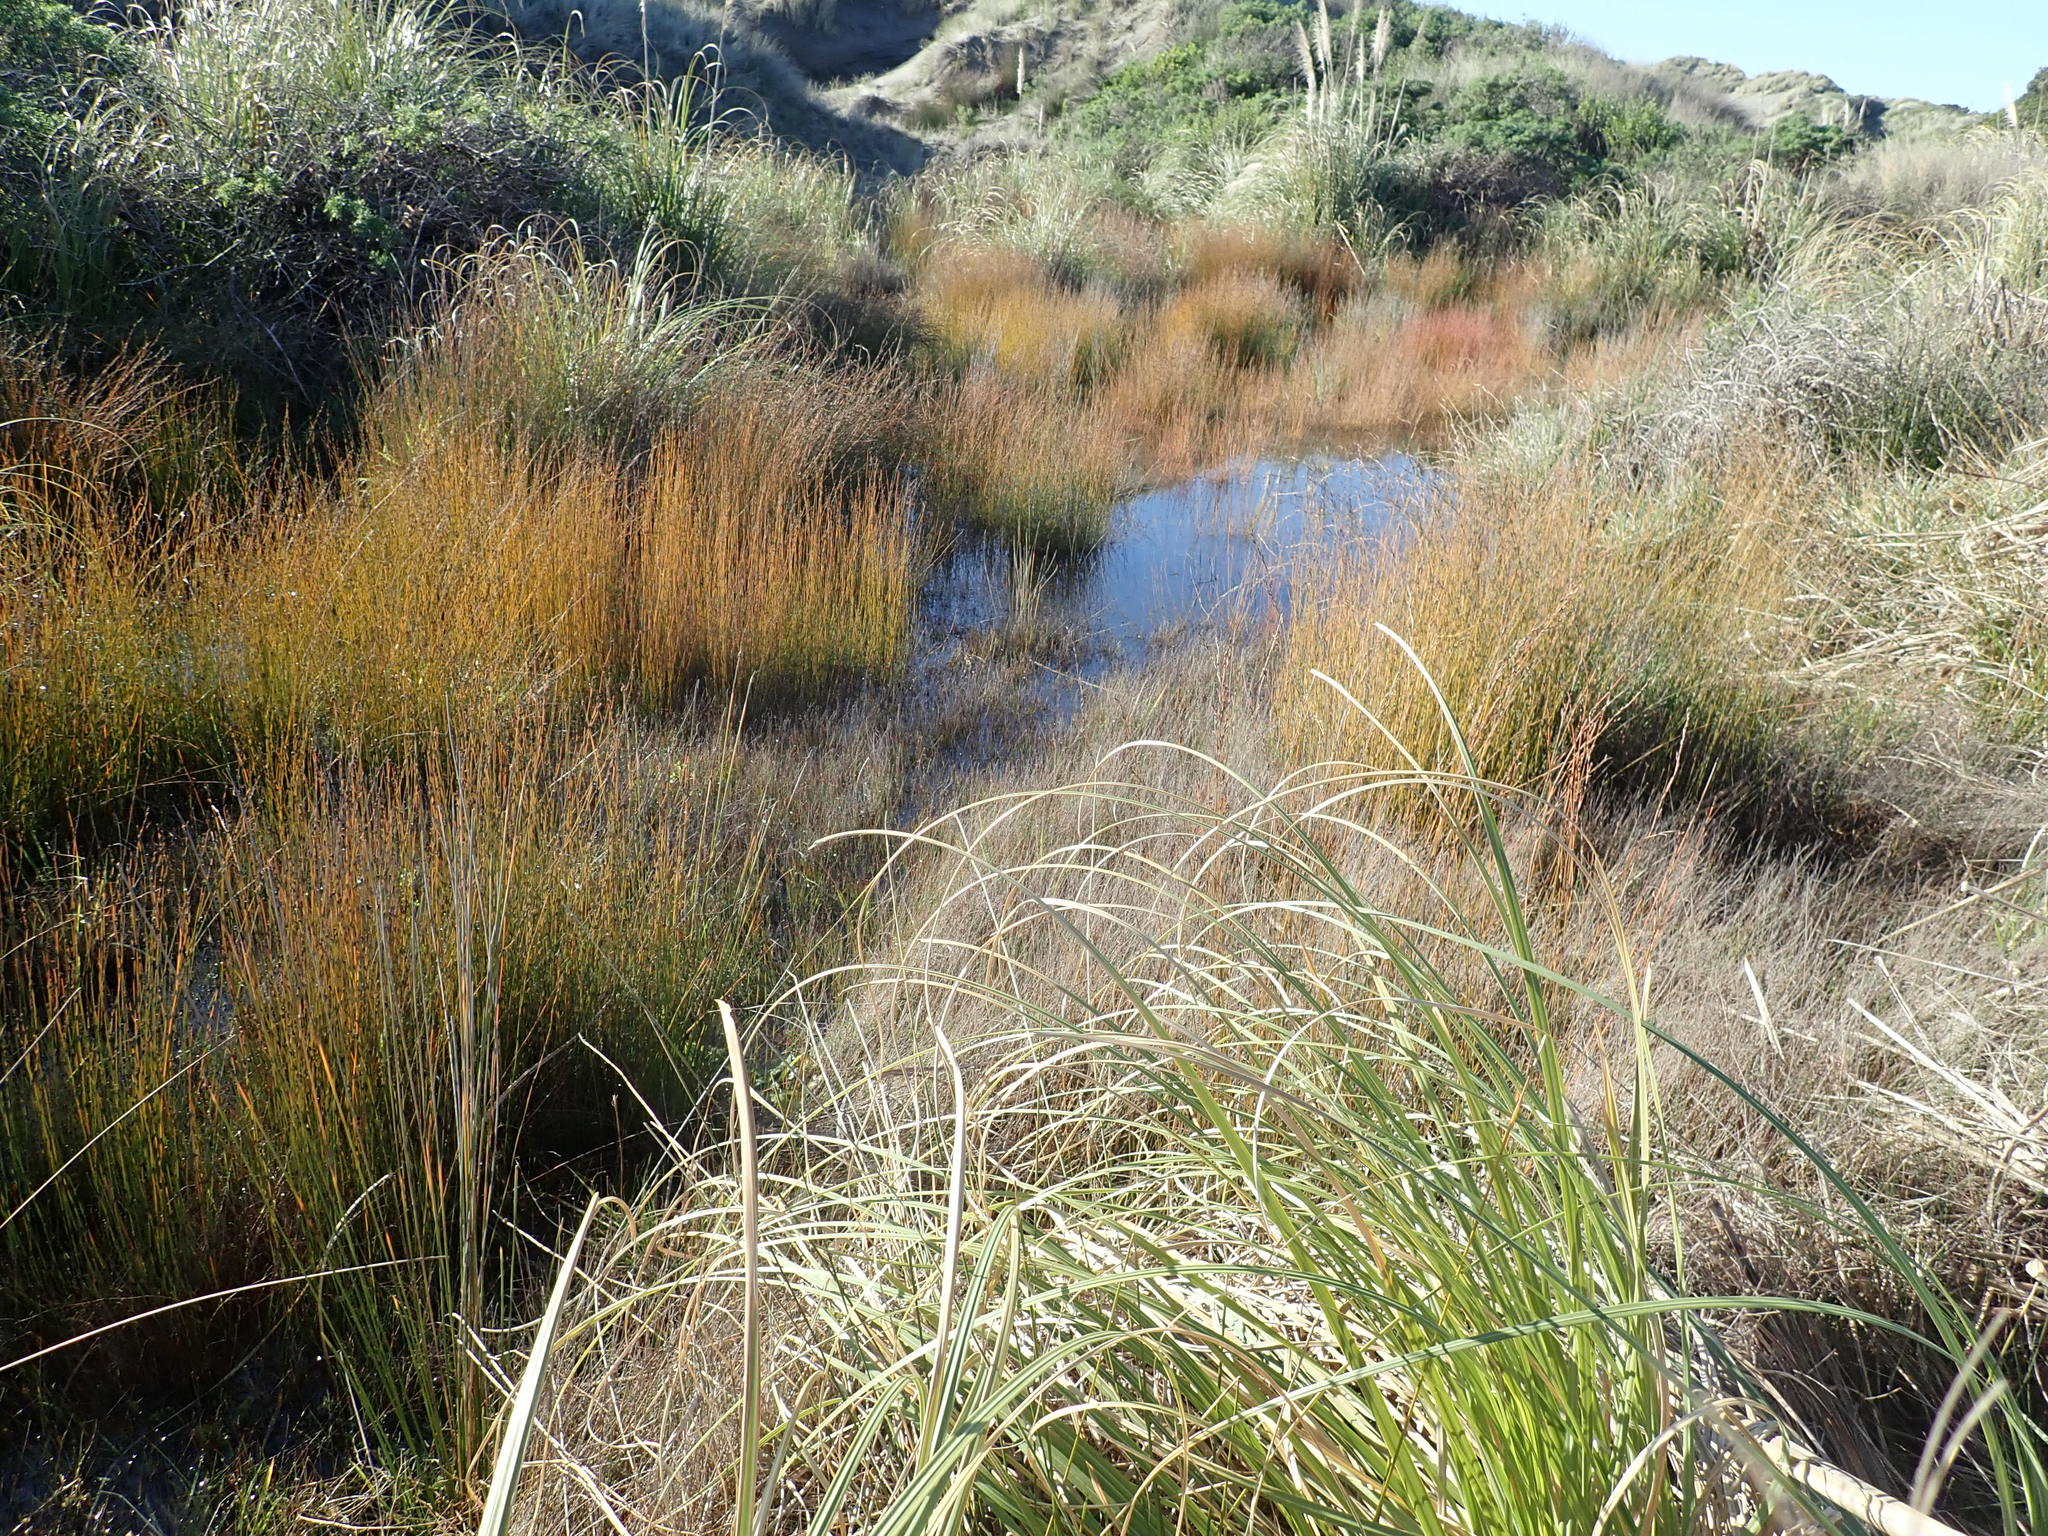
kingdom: Plantae
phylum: Tracheophyta
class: Liliopsida
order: Poales
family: Restionaceae
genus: Apodasmia
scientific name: Apodasmia similis
